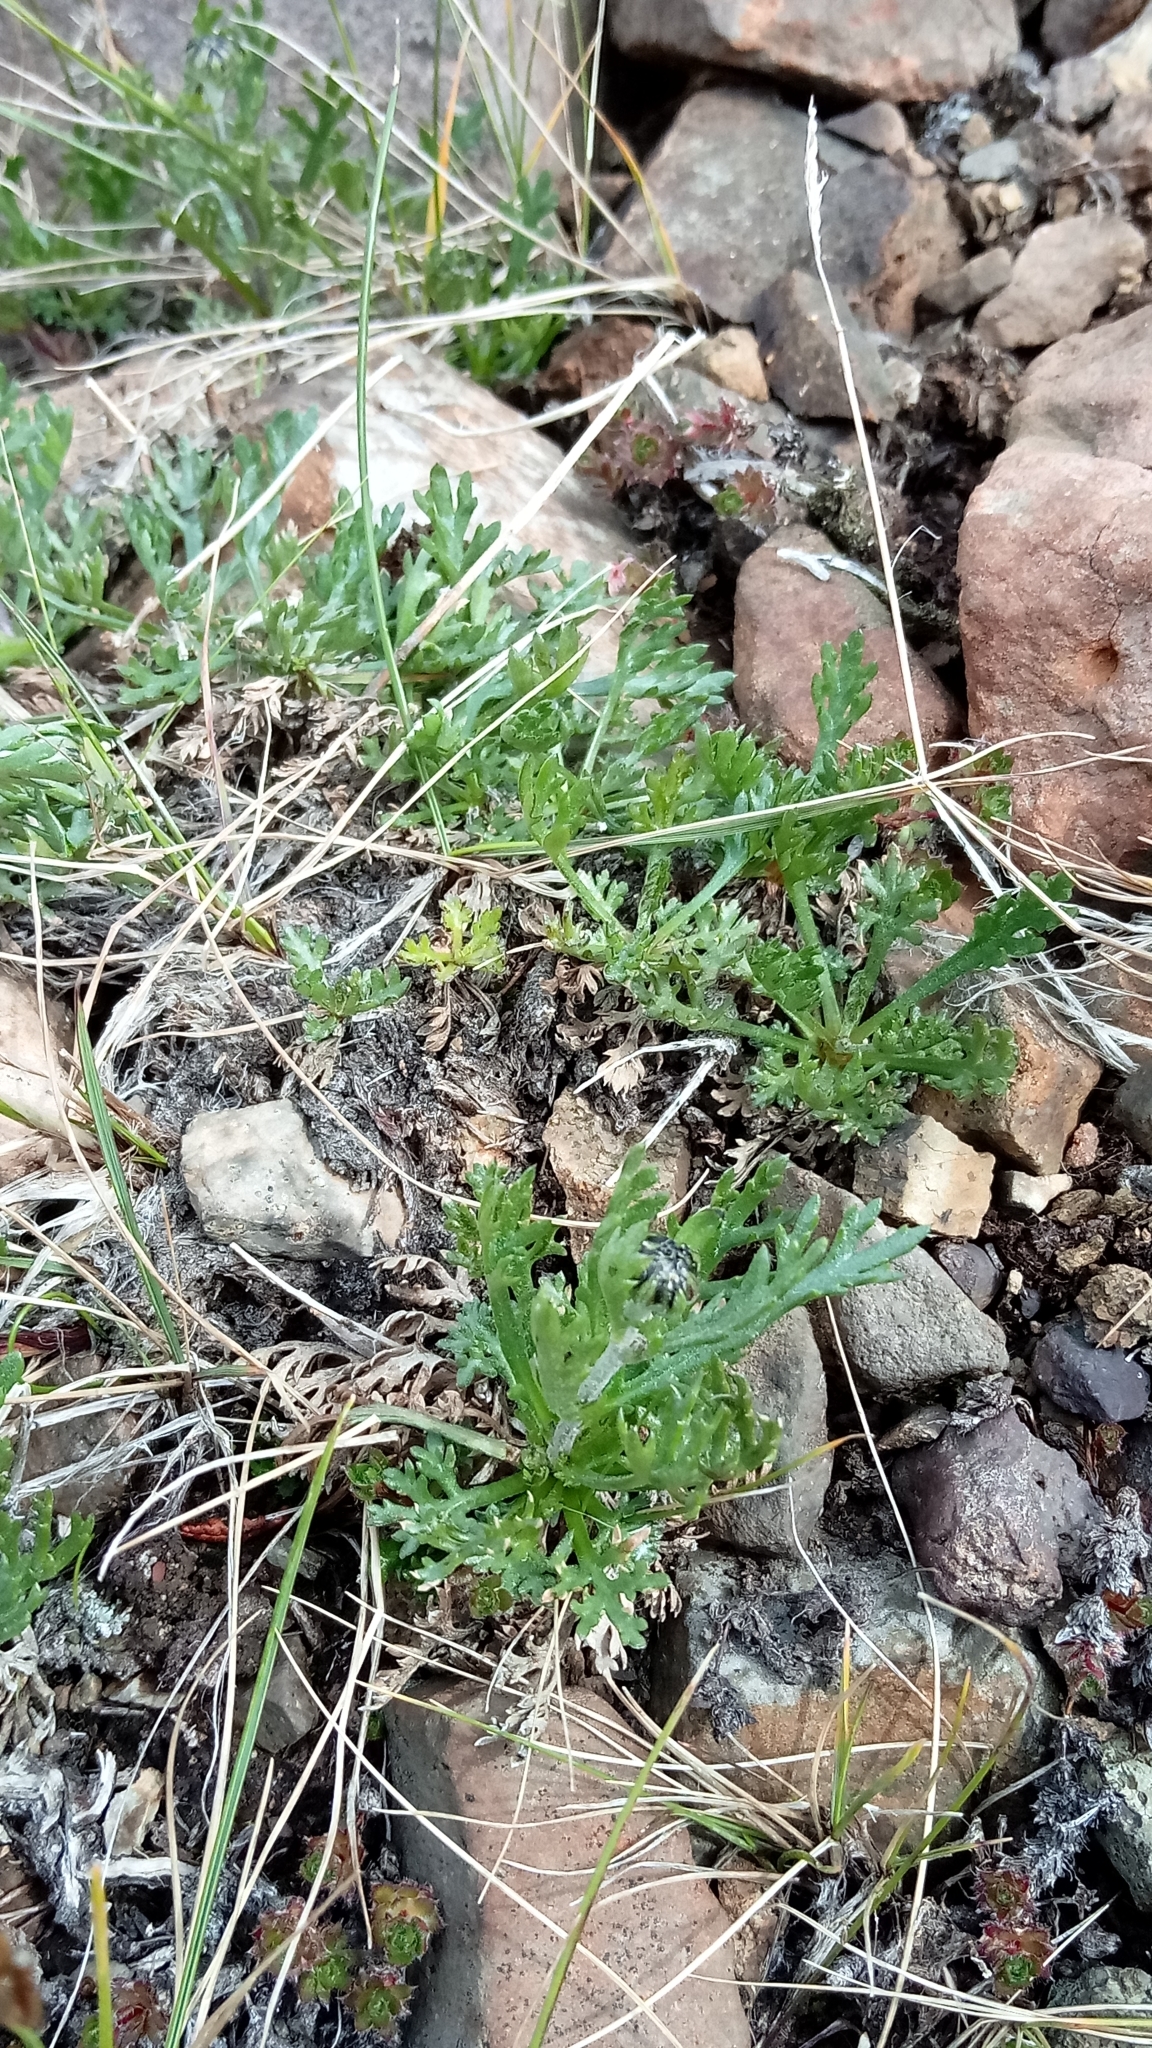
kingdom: Plantae
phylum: Tracheophyta
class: Magnoliopsida
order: Asterales
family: Asteraceae
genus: Chrysanthemum
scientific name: Chrysanthemum zawadzkii
